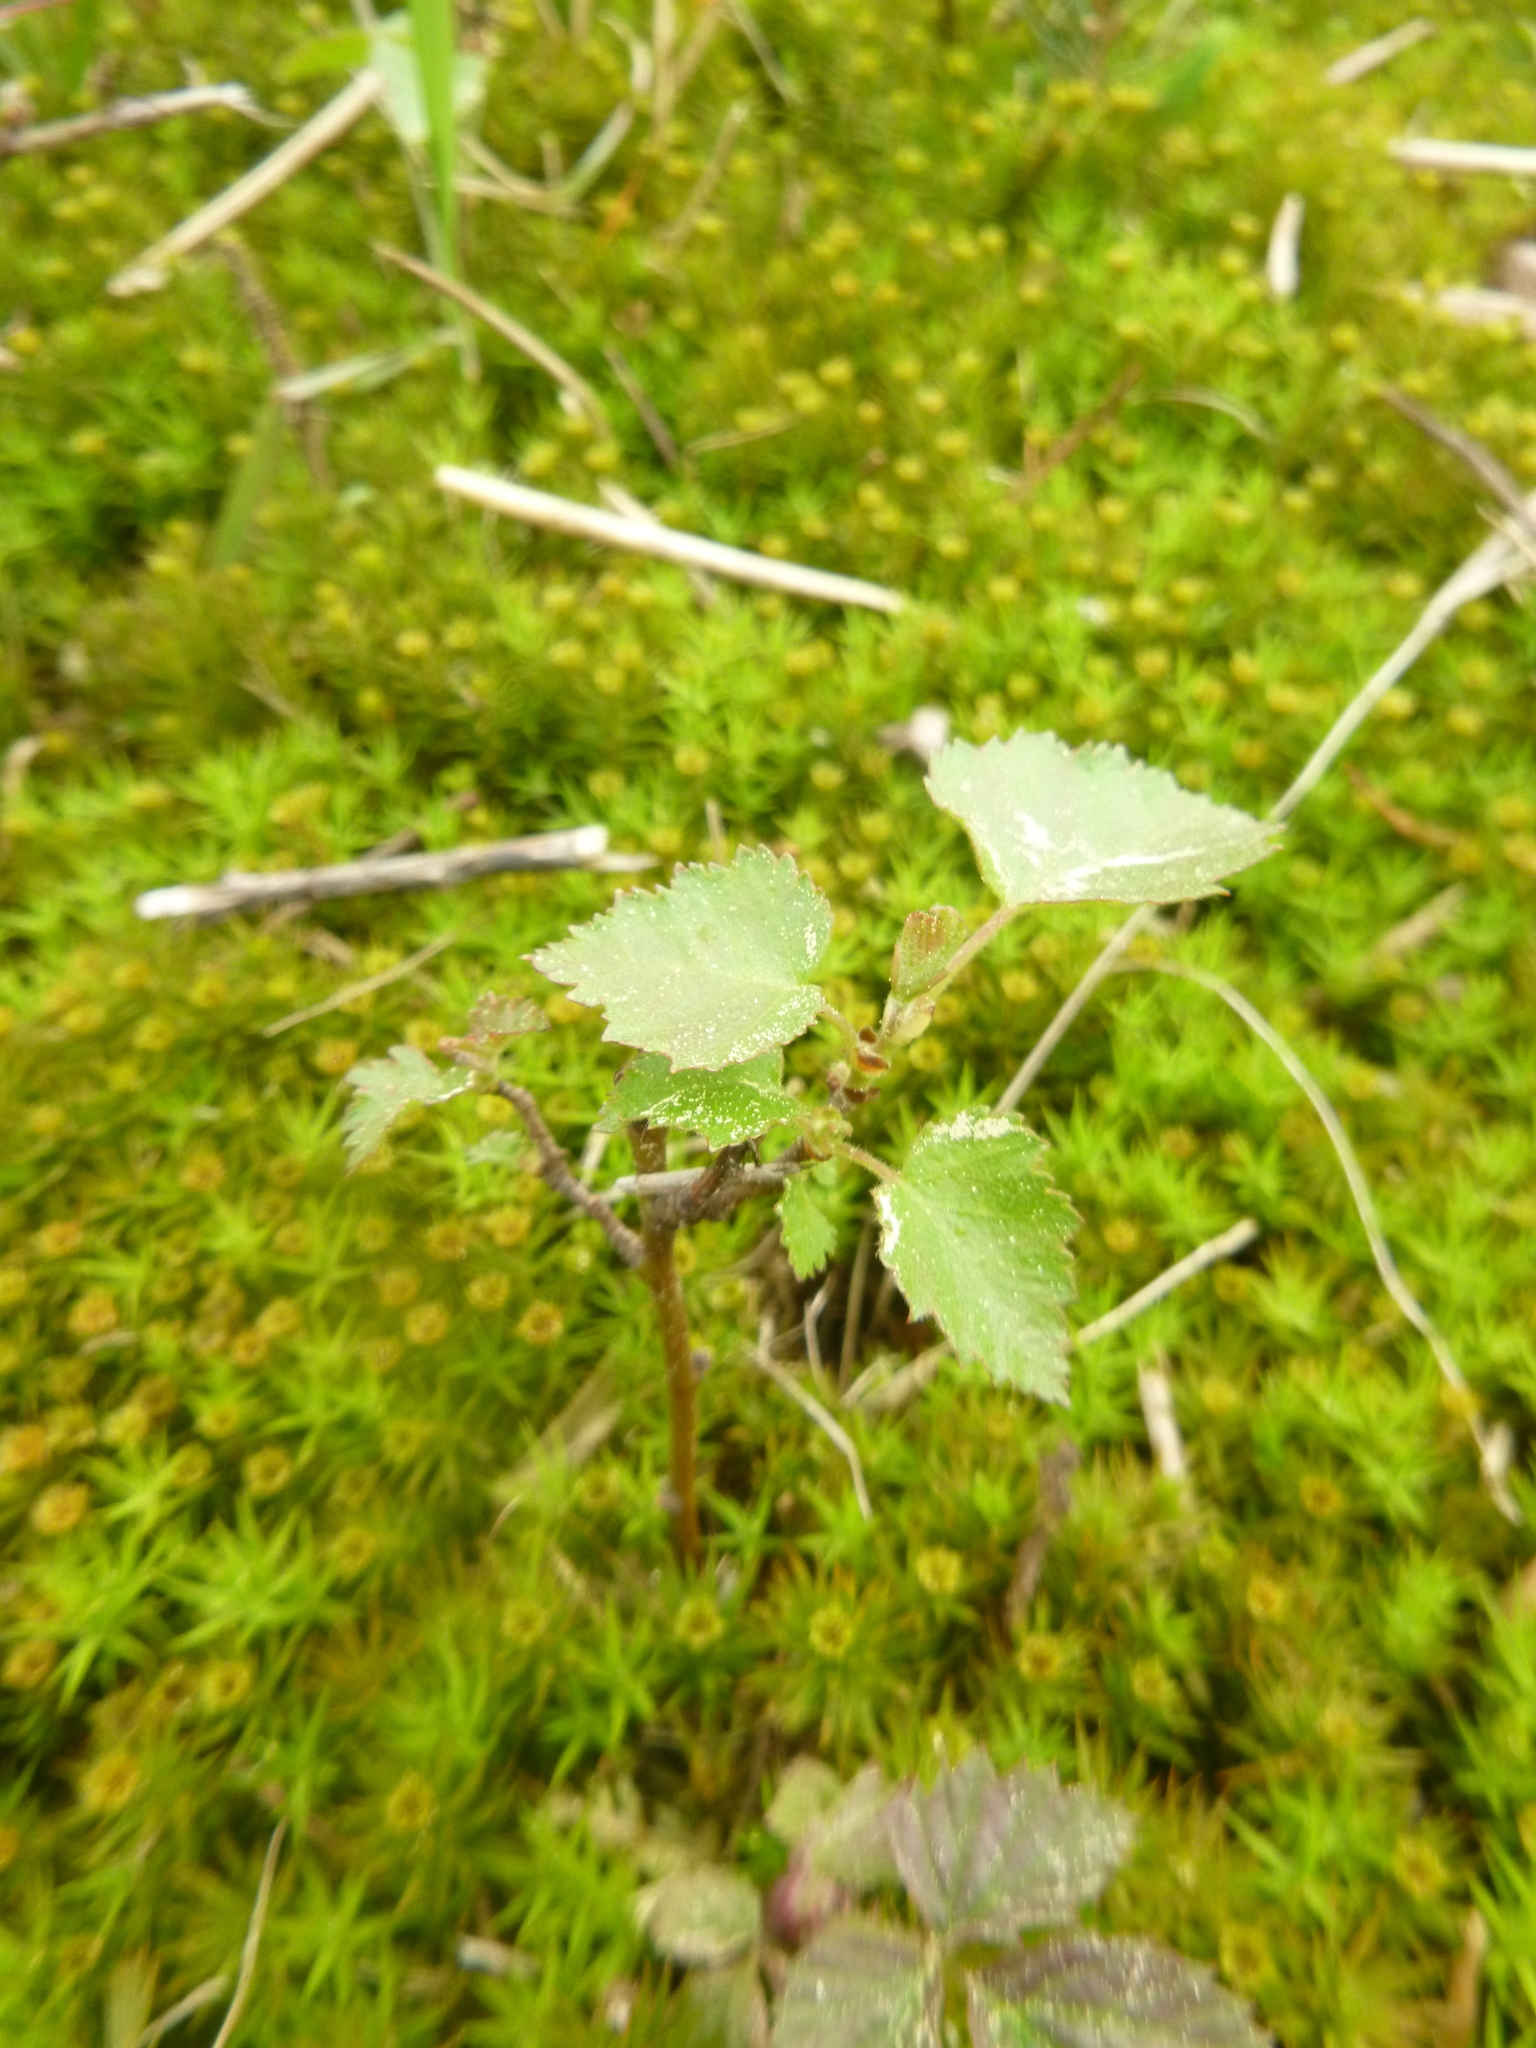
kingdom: Plantae
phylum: Tracheophyta
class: Magnoliopsida
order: Fagales
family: Betulaceae
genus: Betula
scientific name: Betula pendula
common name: Silver birch
